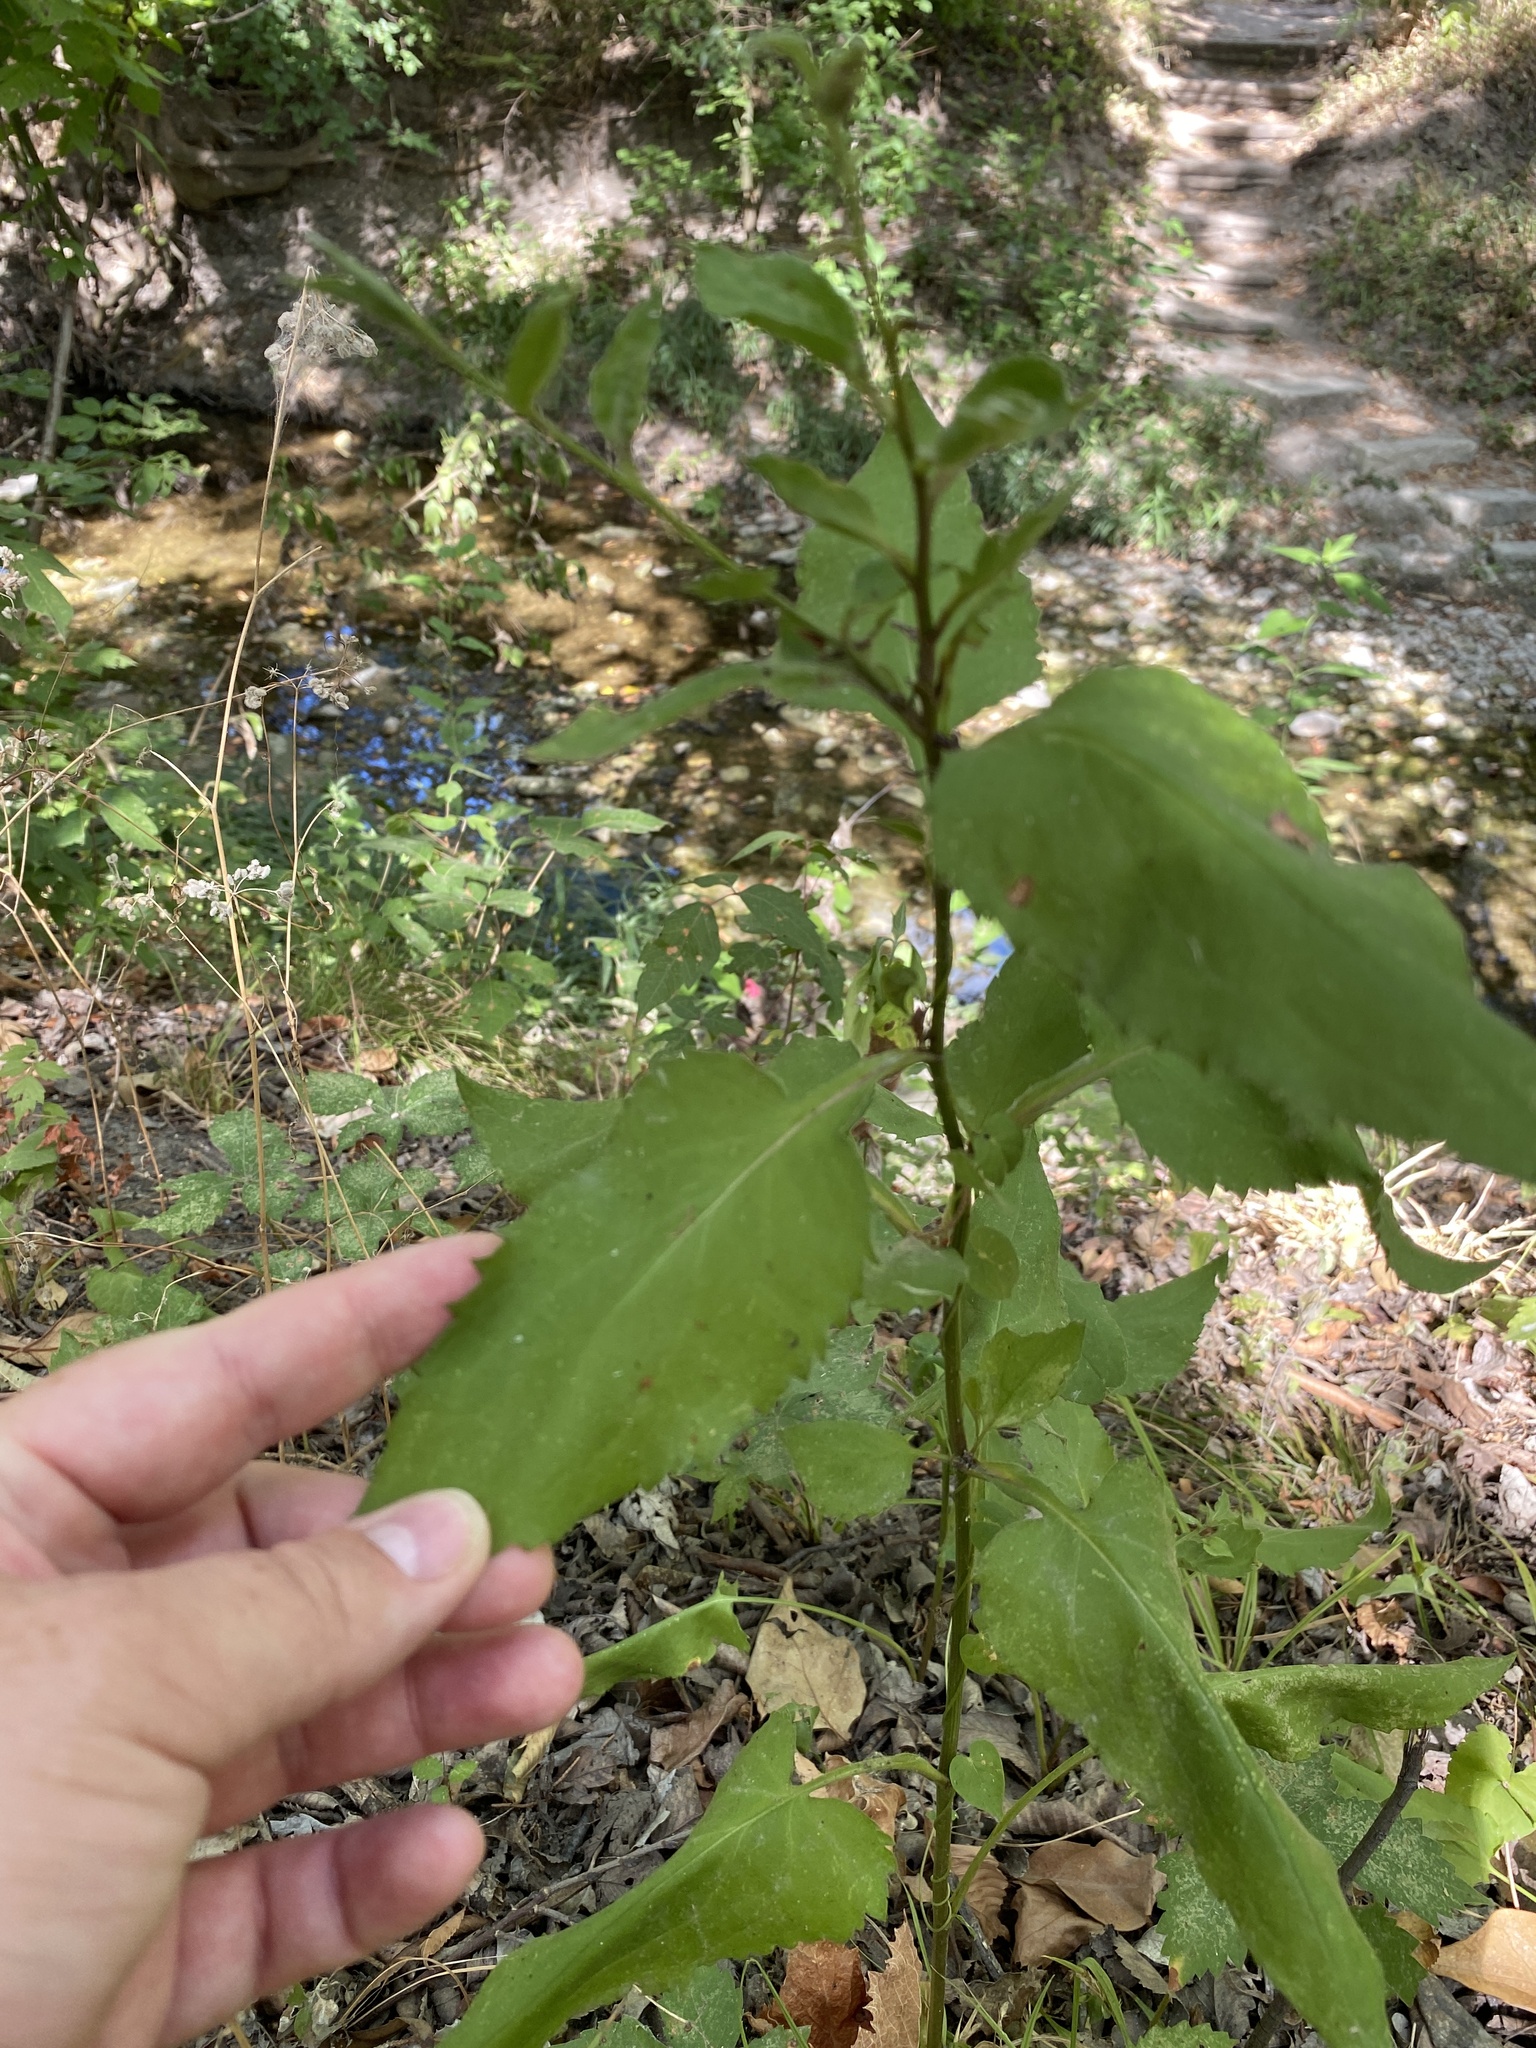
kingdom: Plantae
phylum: Tracheophyta
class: Magnoliopsida
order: Asterales
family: Asteraceae
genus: Symphyotrichum
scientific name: Symphyotrichum drummondii
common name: Drummond's aster
